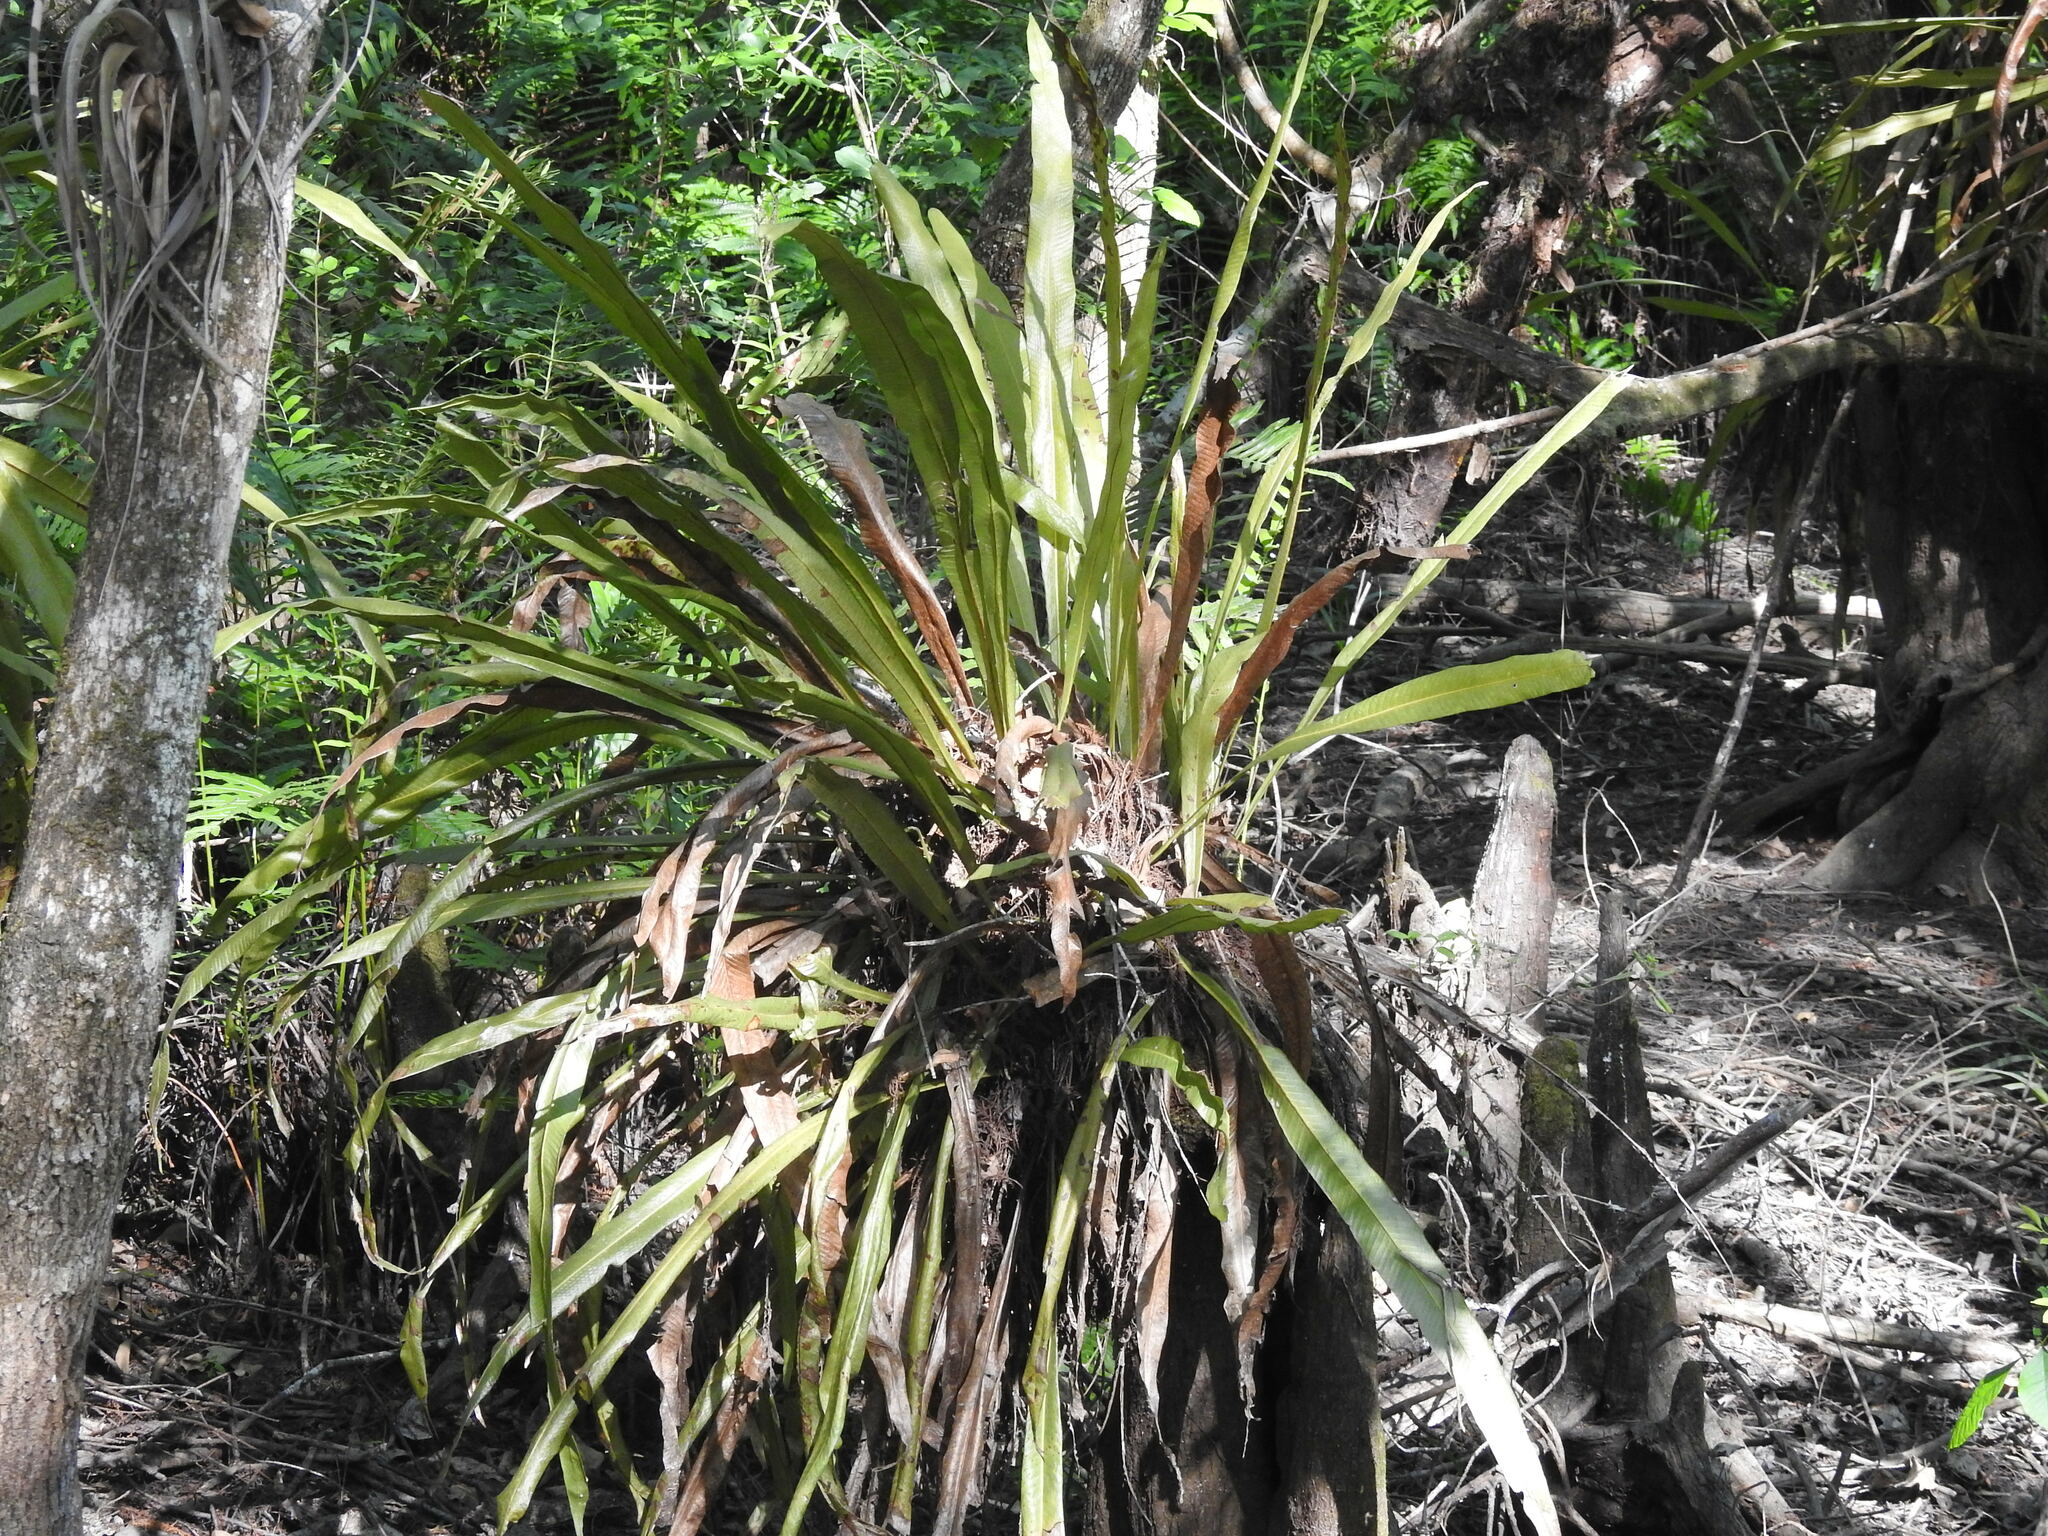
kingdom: Plantae
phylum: Tracheophyta
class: Polypodiopsida
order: Polypodiales
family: Polypodiaceae
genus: Campyloneurum
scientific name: Campyloneurum phyllitidis
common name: Cow-tongue fern
